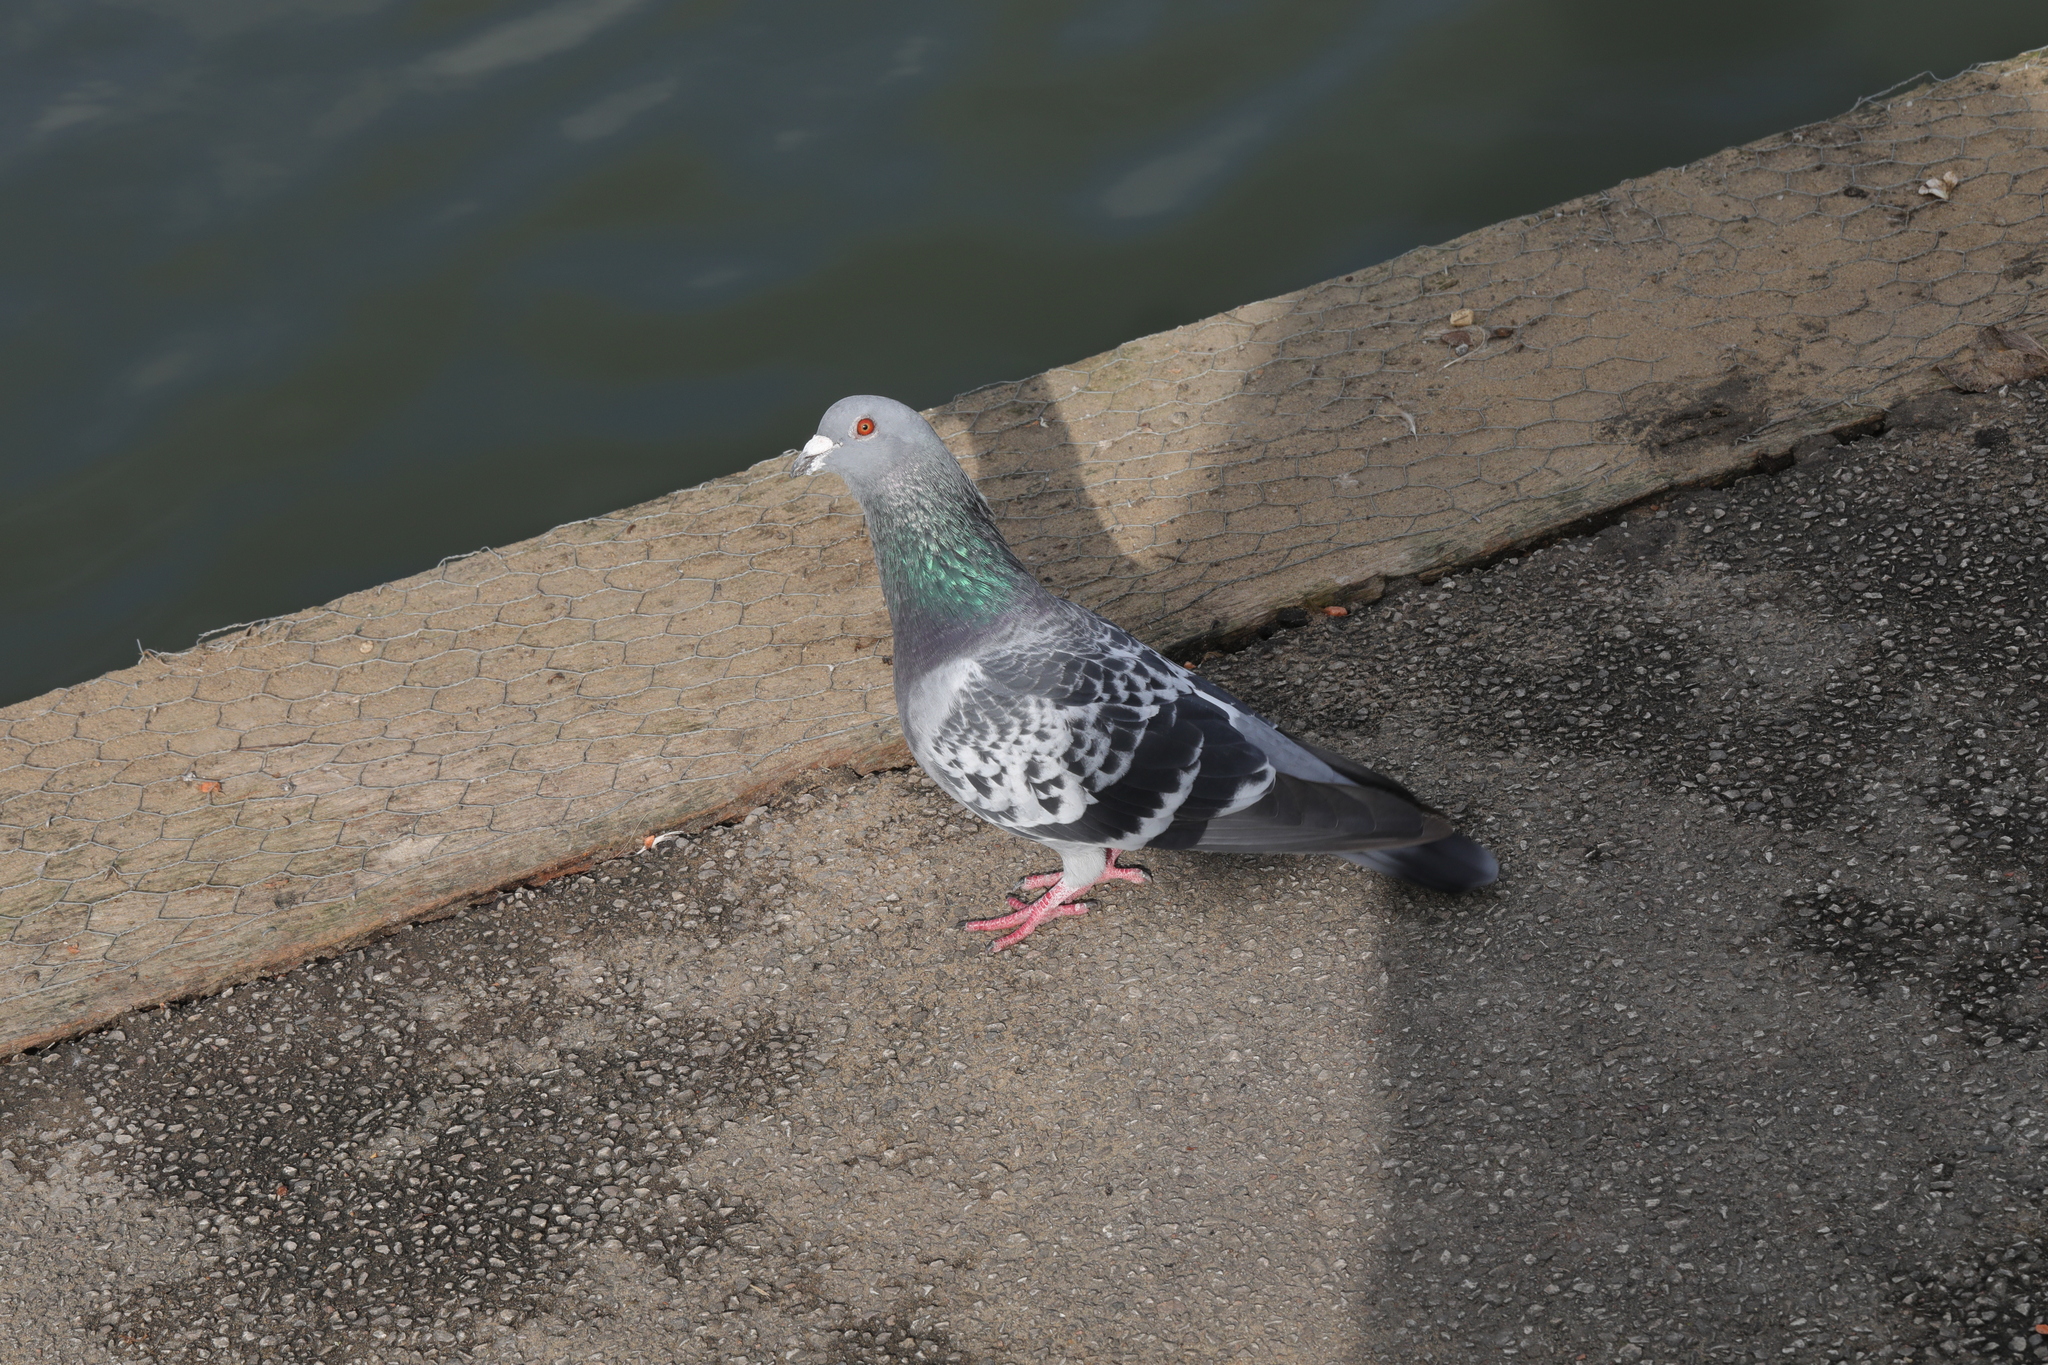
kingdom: Animalia
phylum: Chordata
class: Aves
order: Columbiformes
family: Columbidae
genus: Columba
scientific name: Columba livia
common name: Rock pigeon
